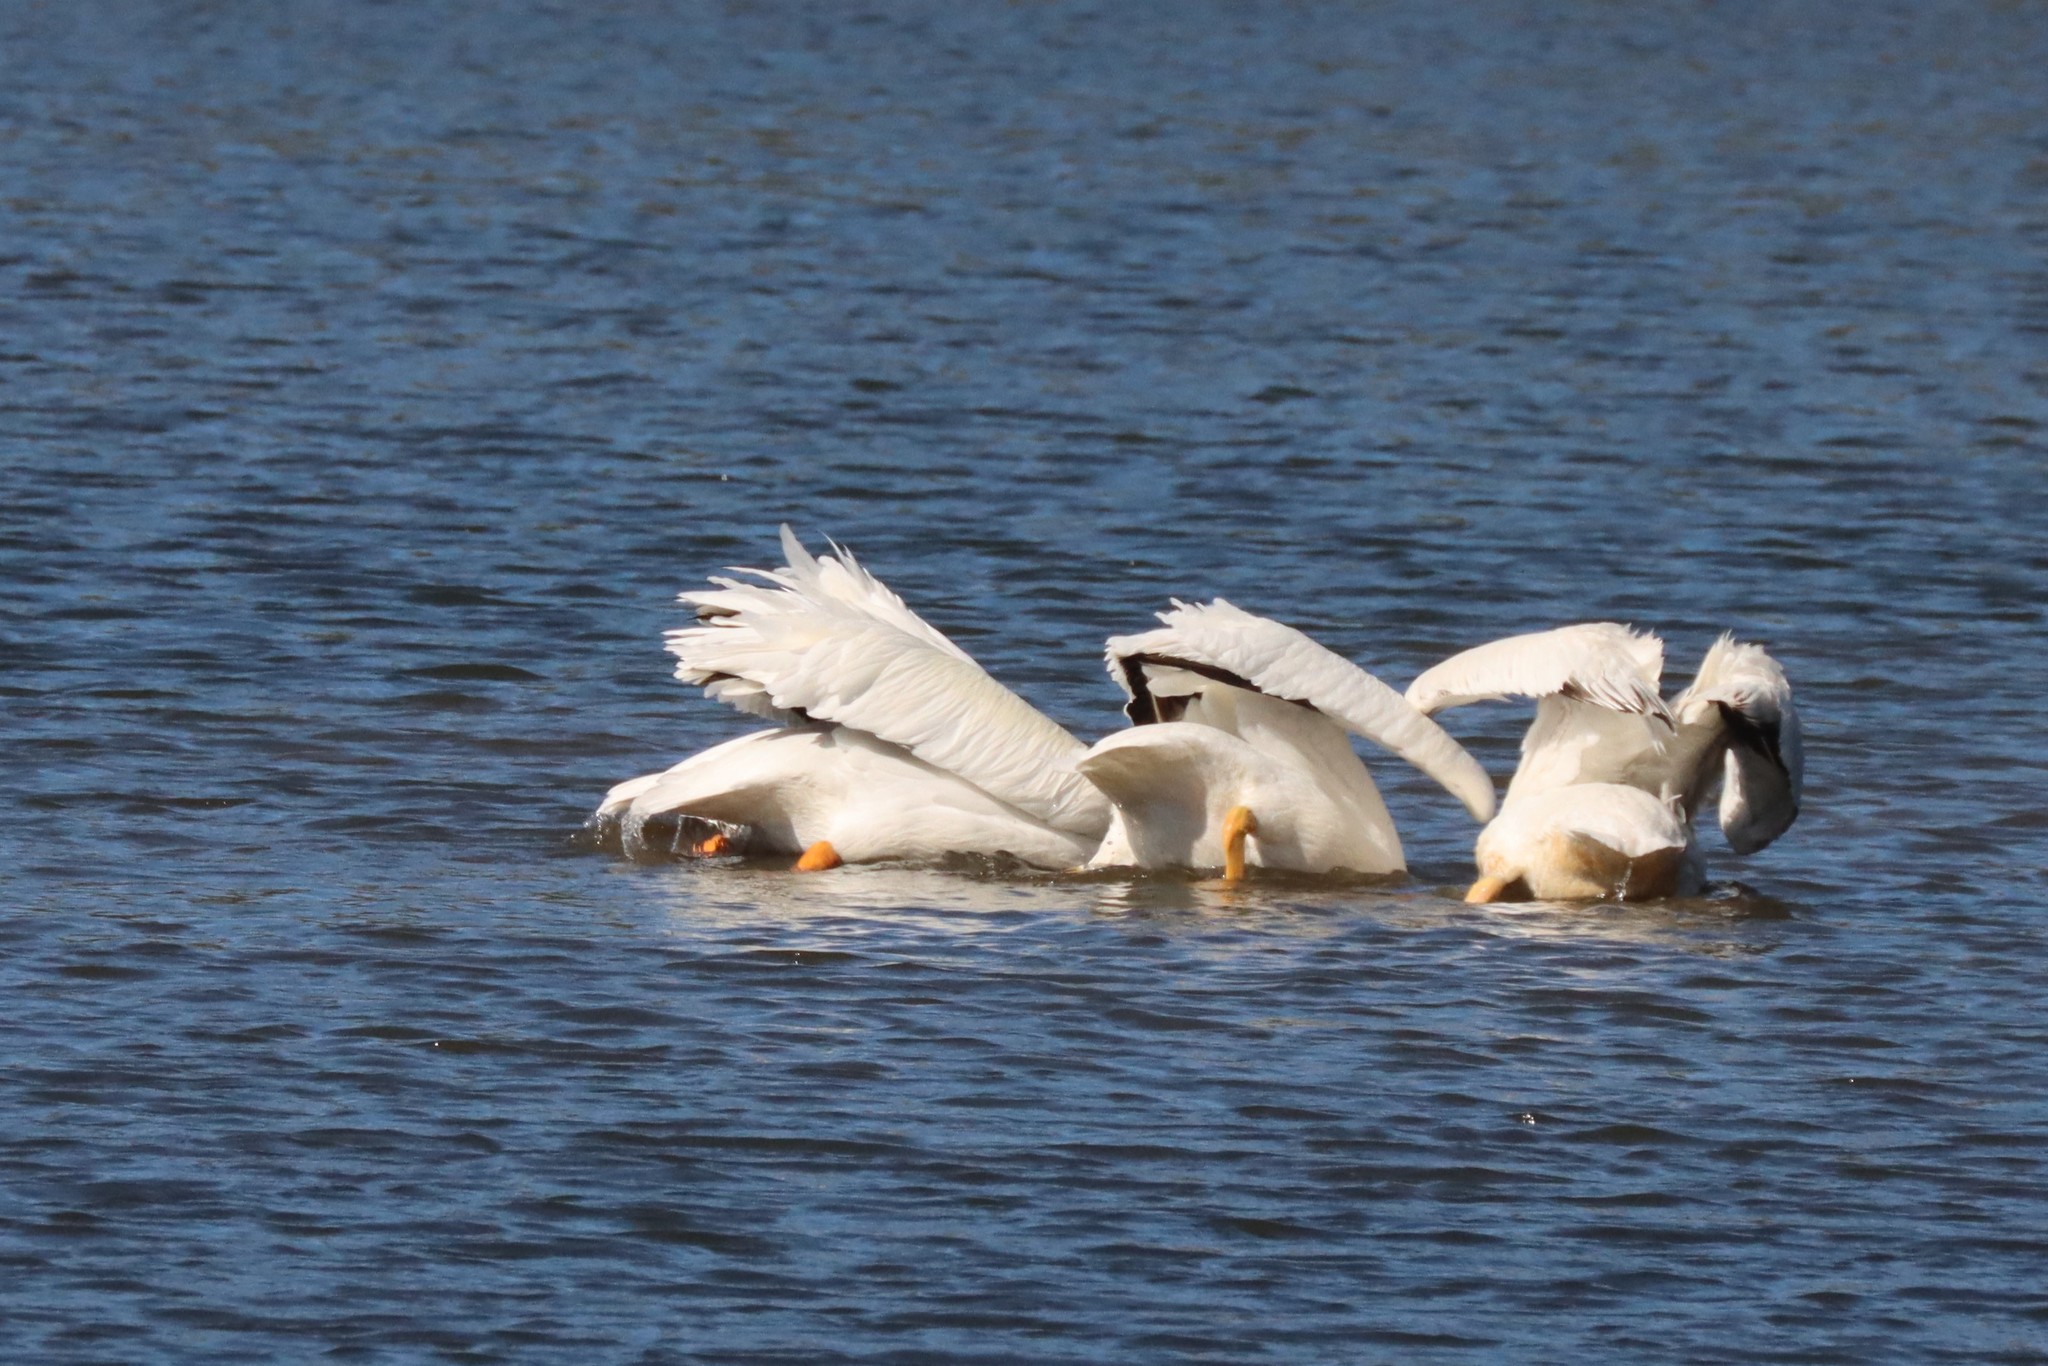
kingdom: Animalia
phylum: Chordata
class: Aves
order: Pelecaniformes
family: Pelecanidae
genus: Pelecanus
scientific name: Pelecanus erythrorhynchos
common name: American white pelican
